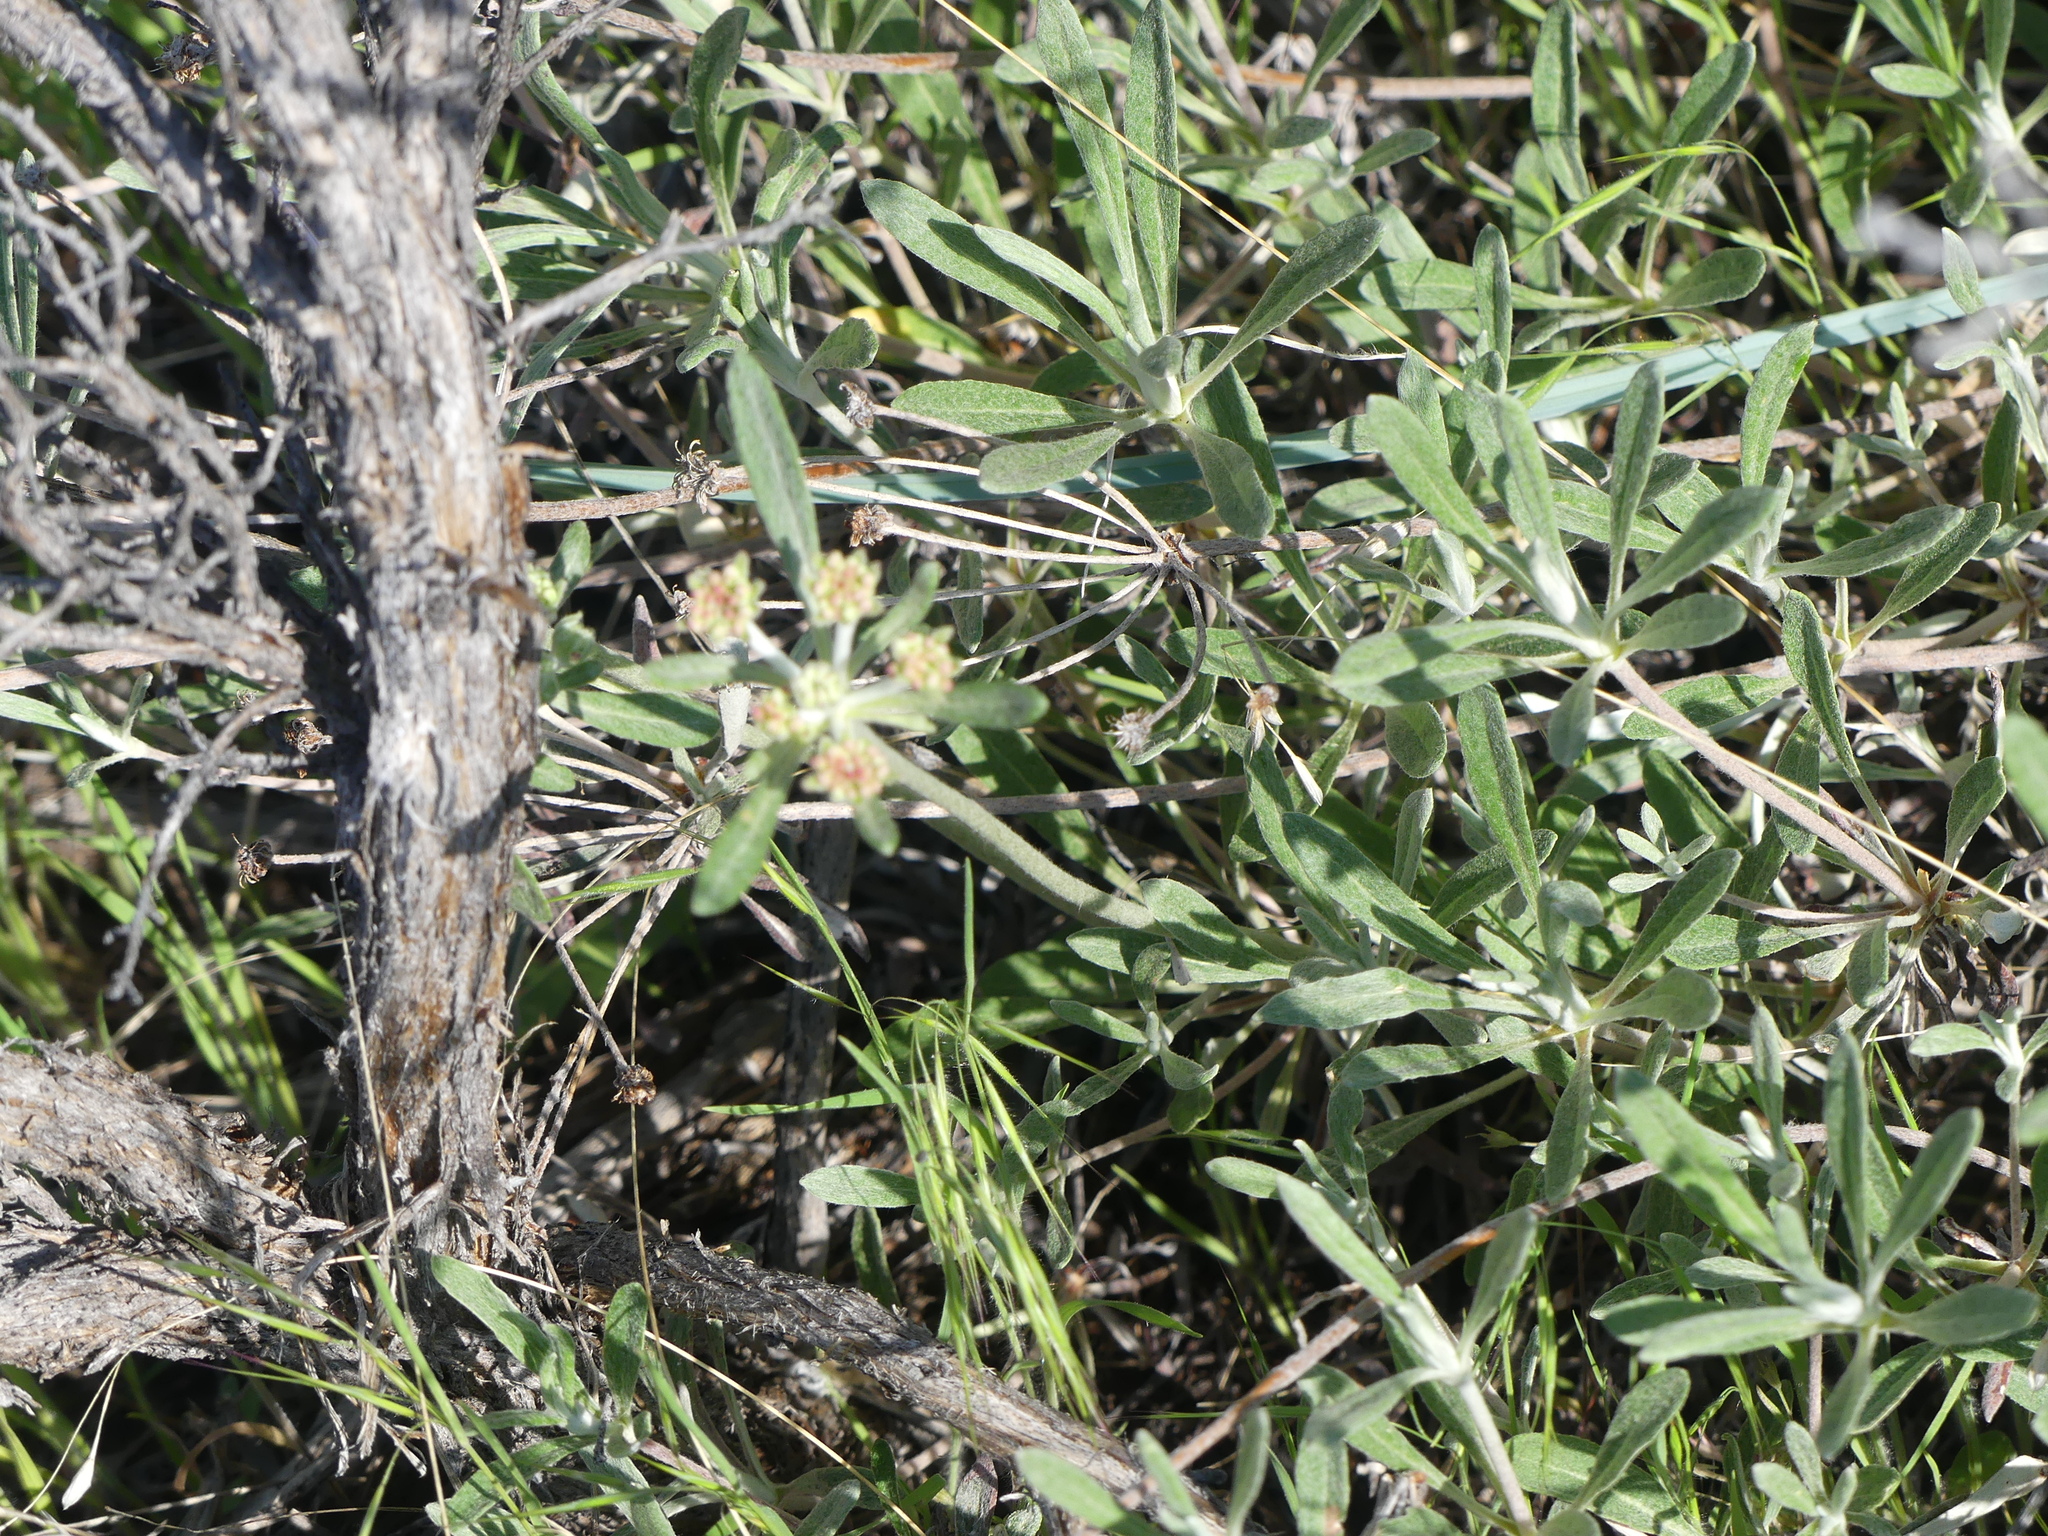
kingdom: Plantae
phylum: Tracheophyta
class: Magnoliopsida
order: Caryophyllales
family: Polygonaceae
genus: Eriogonum
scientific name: Eriogonum heracleoides
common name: Wyeth's buckwheat
